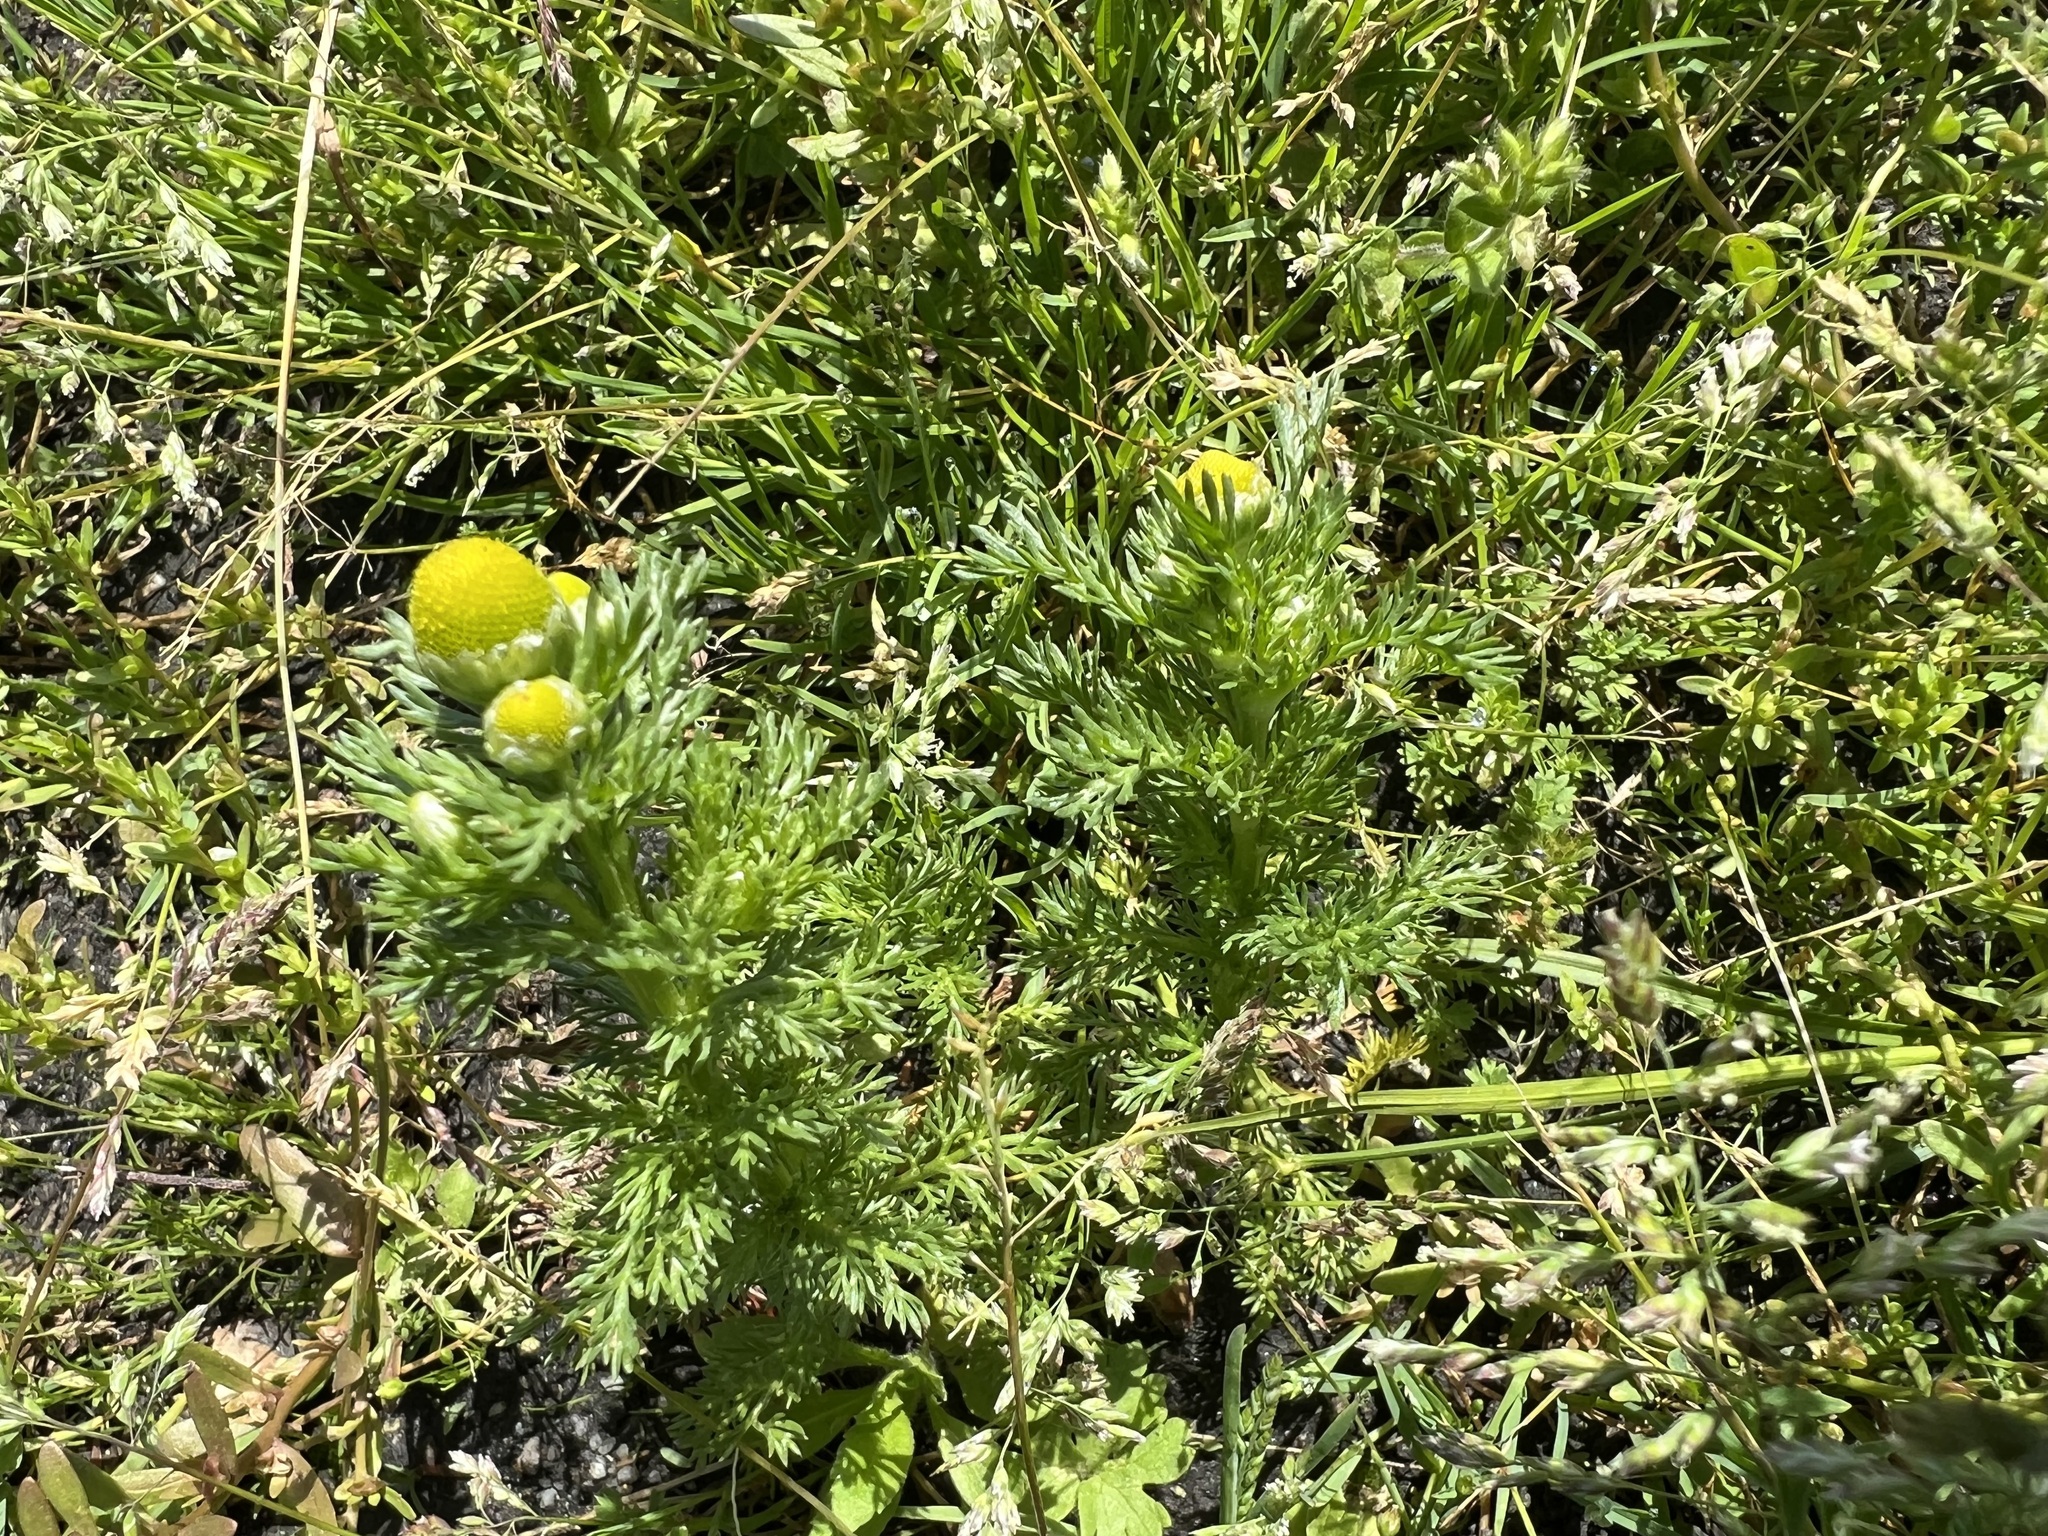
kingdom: Plantae
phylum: Tracheophyta
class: Magnoliopsida
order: Asterales
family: Asteraceae
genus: Matricaria
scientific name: Matricaria discoidea
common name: Disc mayweed
